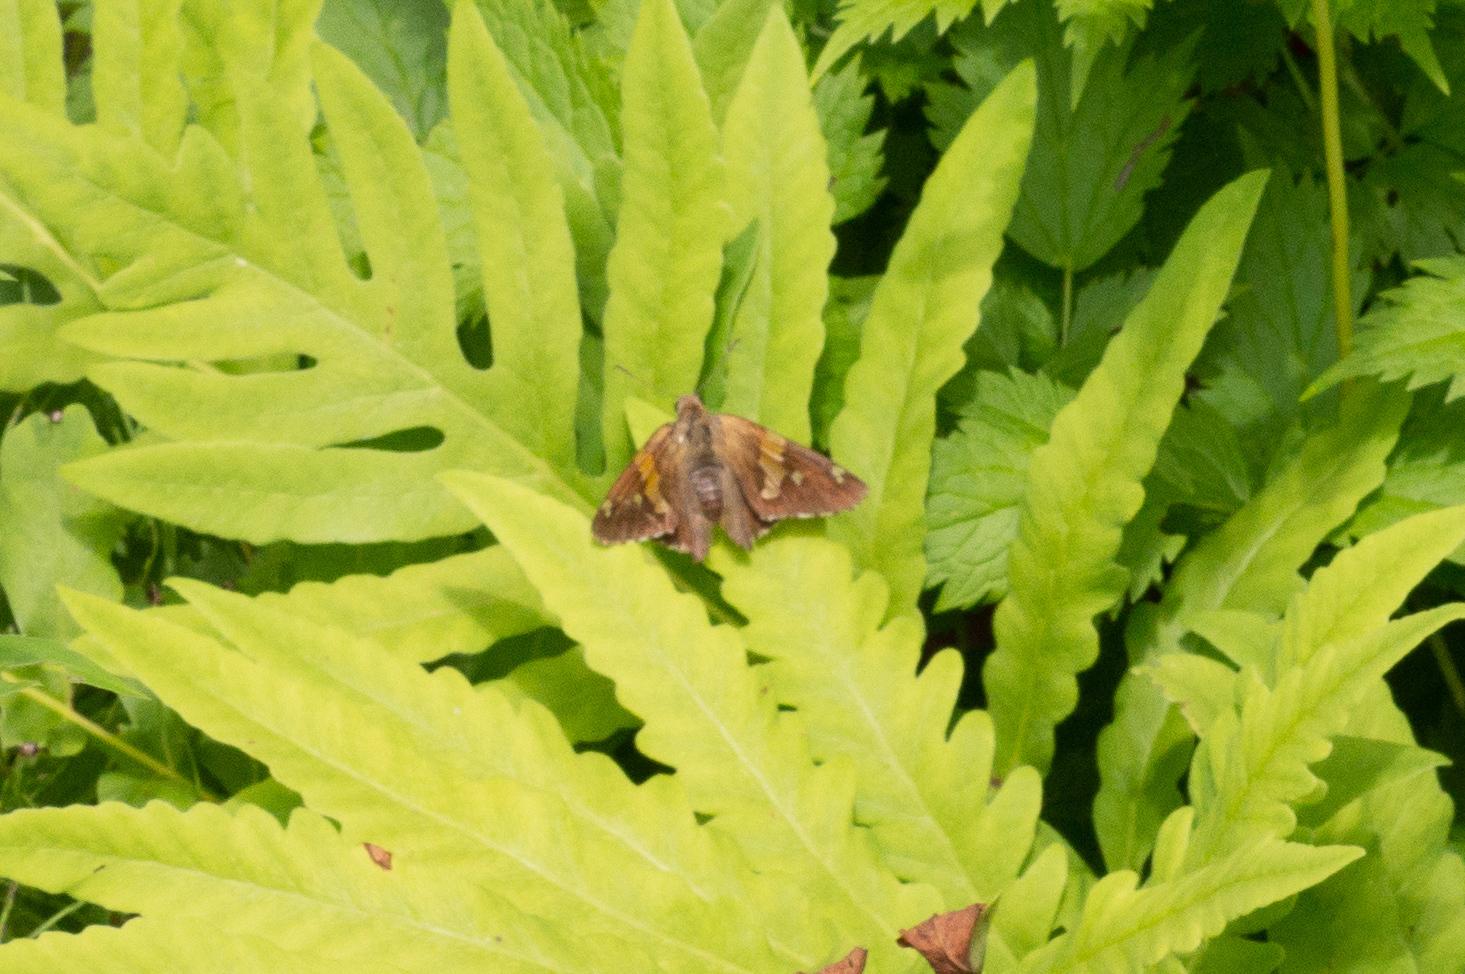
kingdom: Animalia
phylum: Arthropoda
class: Insecta
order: Lepidoptera
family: Hesperiidae
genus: Epargyreus
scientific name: Epargyreus clarus
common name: Silver-spotted skipper
